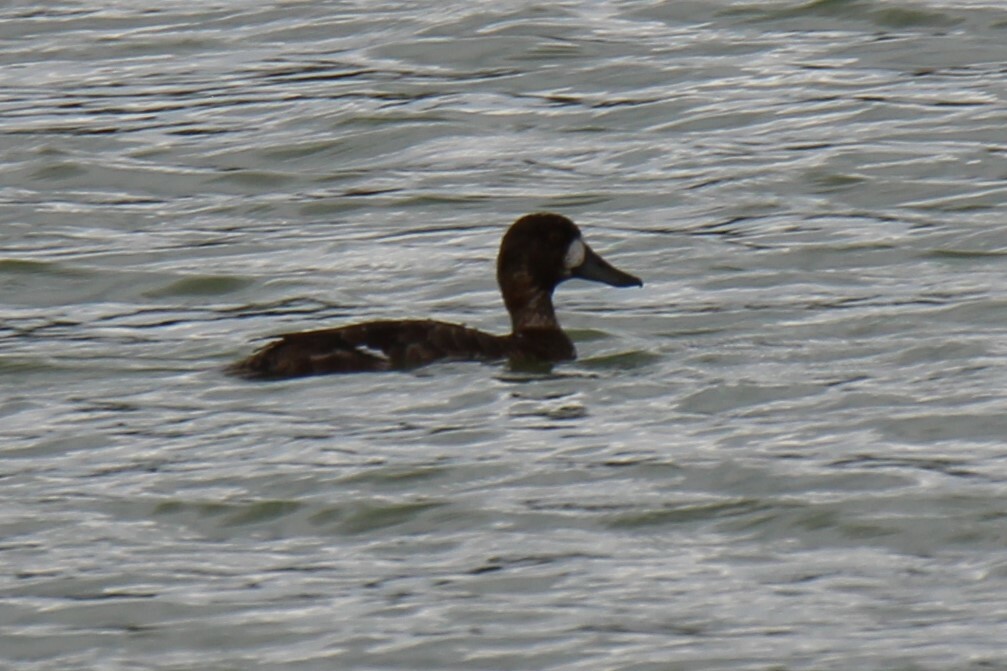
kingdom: Animalia
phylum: Chordata
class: Aves
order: Anseriformes
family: Anatidae
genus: Aythya
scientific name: Aythya marila
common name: Greater scaup
